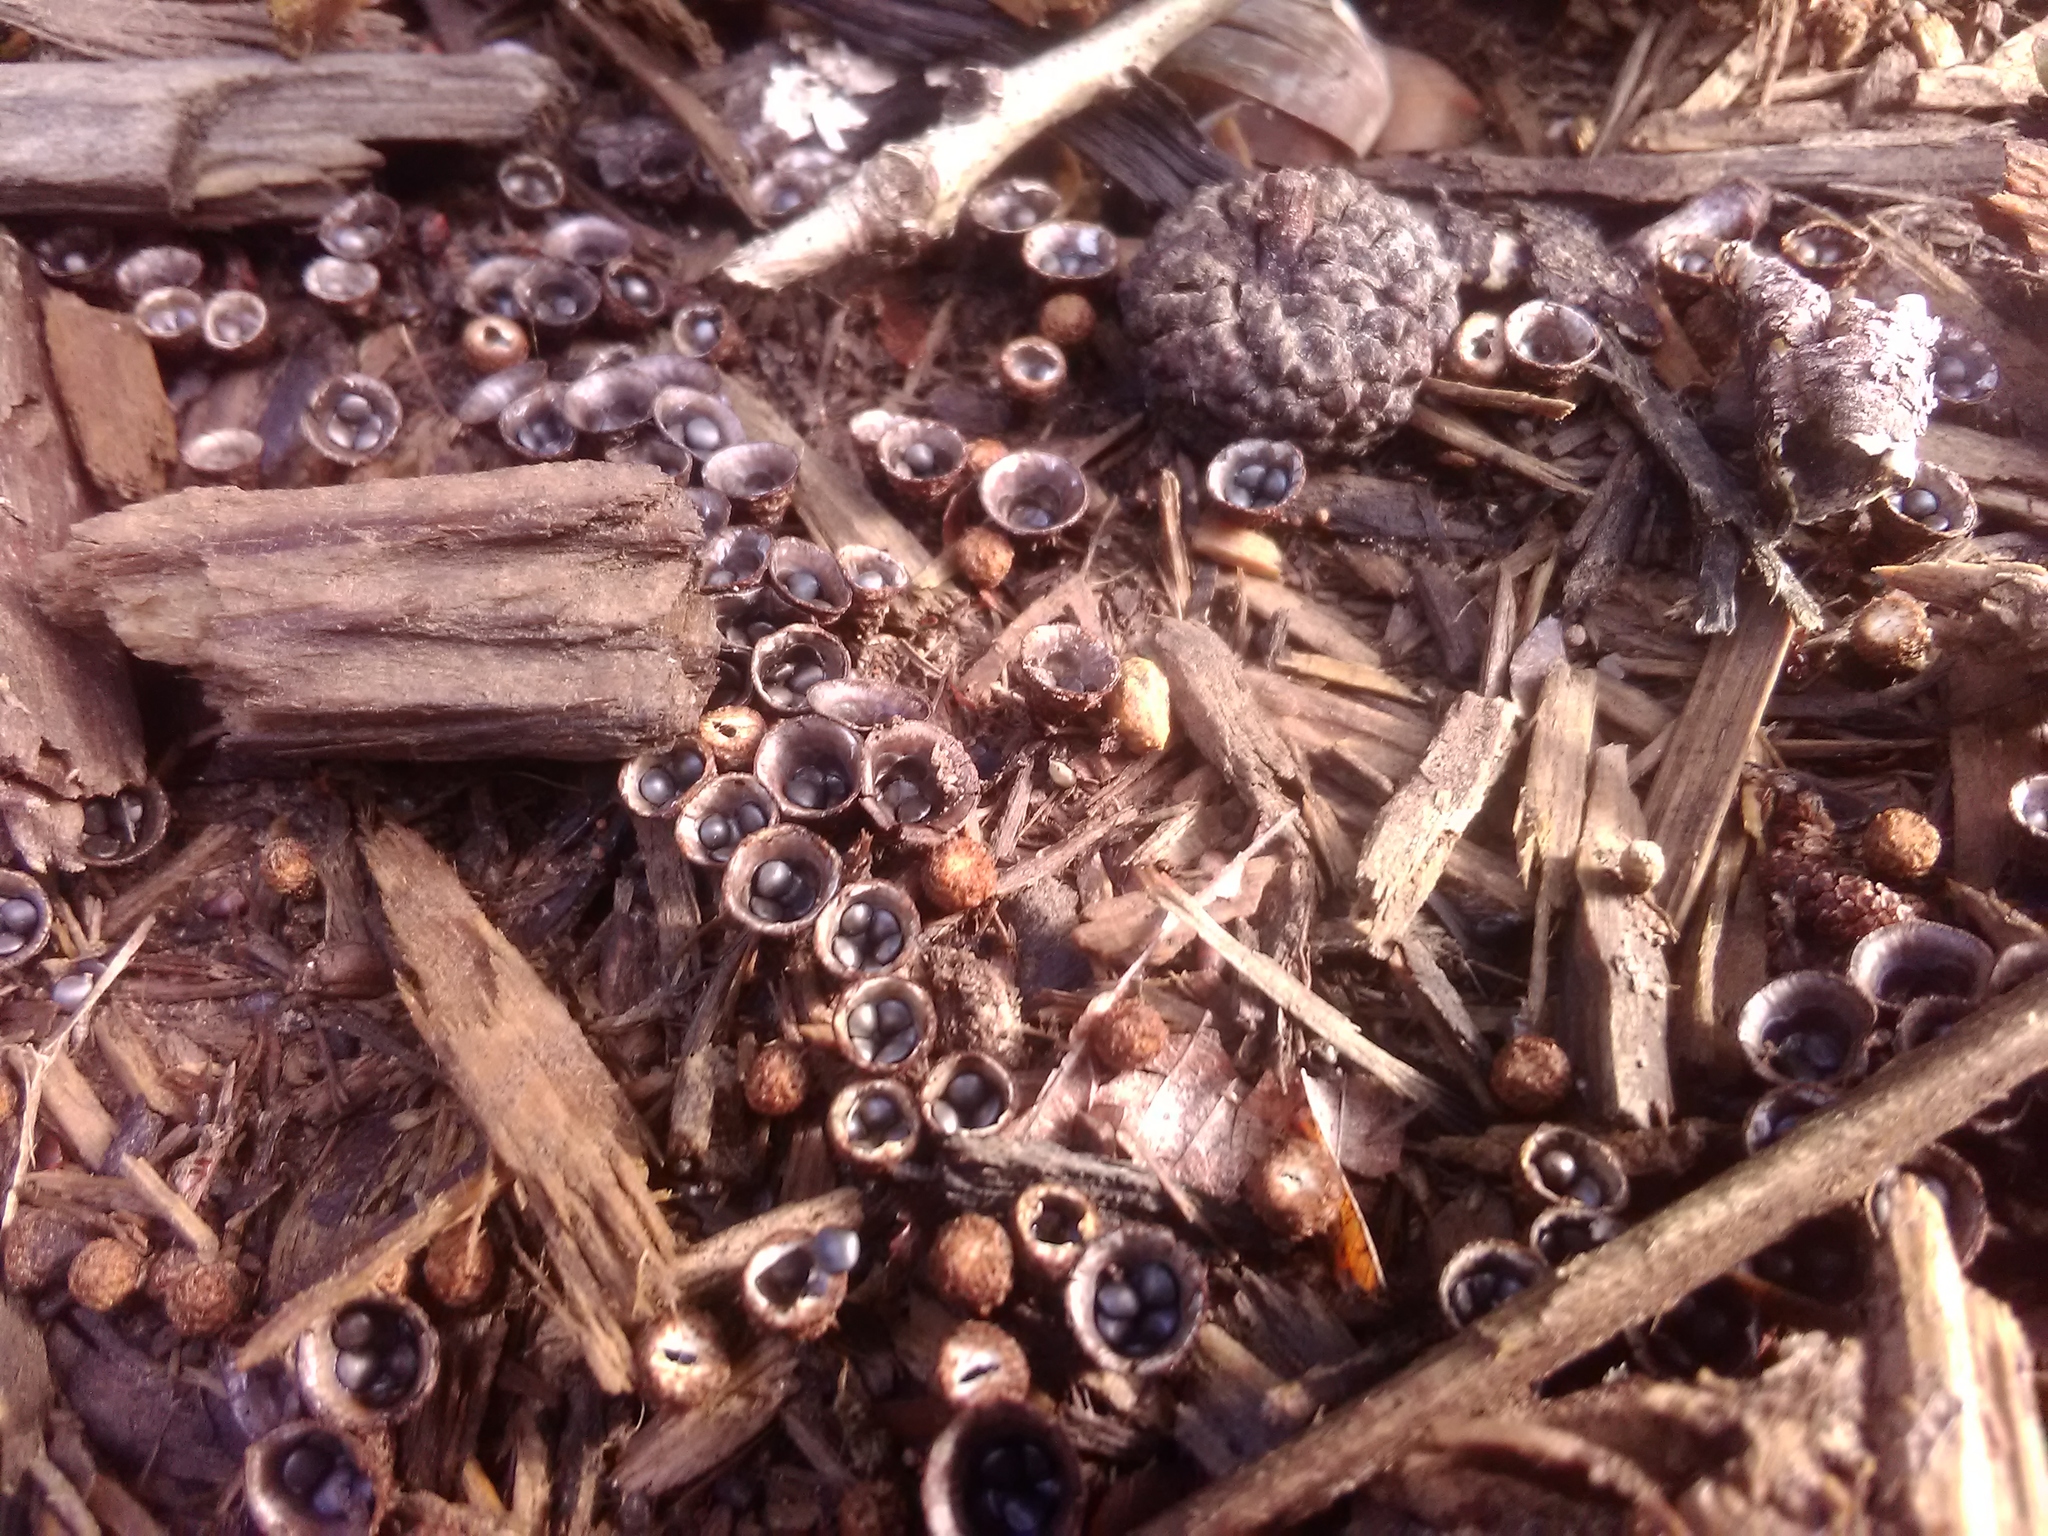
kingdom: Fungi
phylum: Basidiomycota
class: Agaricomycetes
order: Agaricales
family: Agaricaceae
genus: Cyathus
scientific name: Cyathus stercoreus
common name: Dung bird's nest
